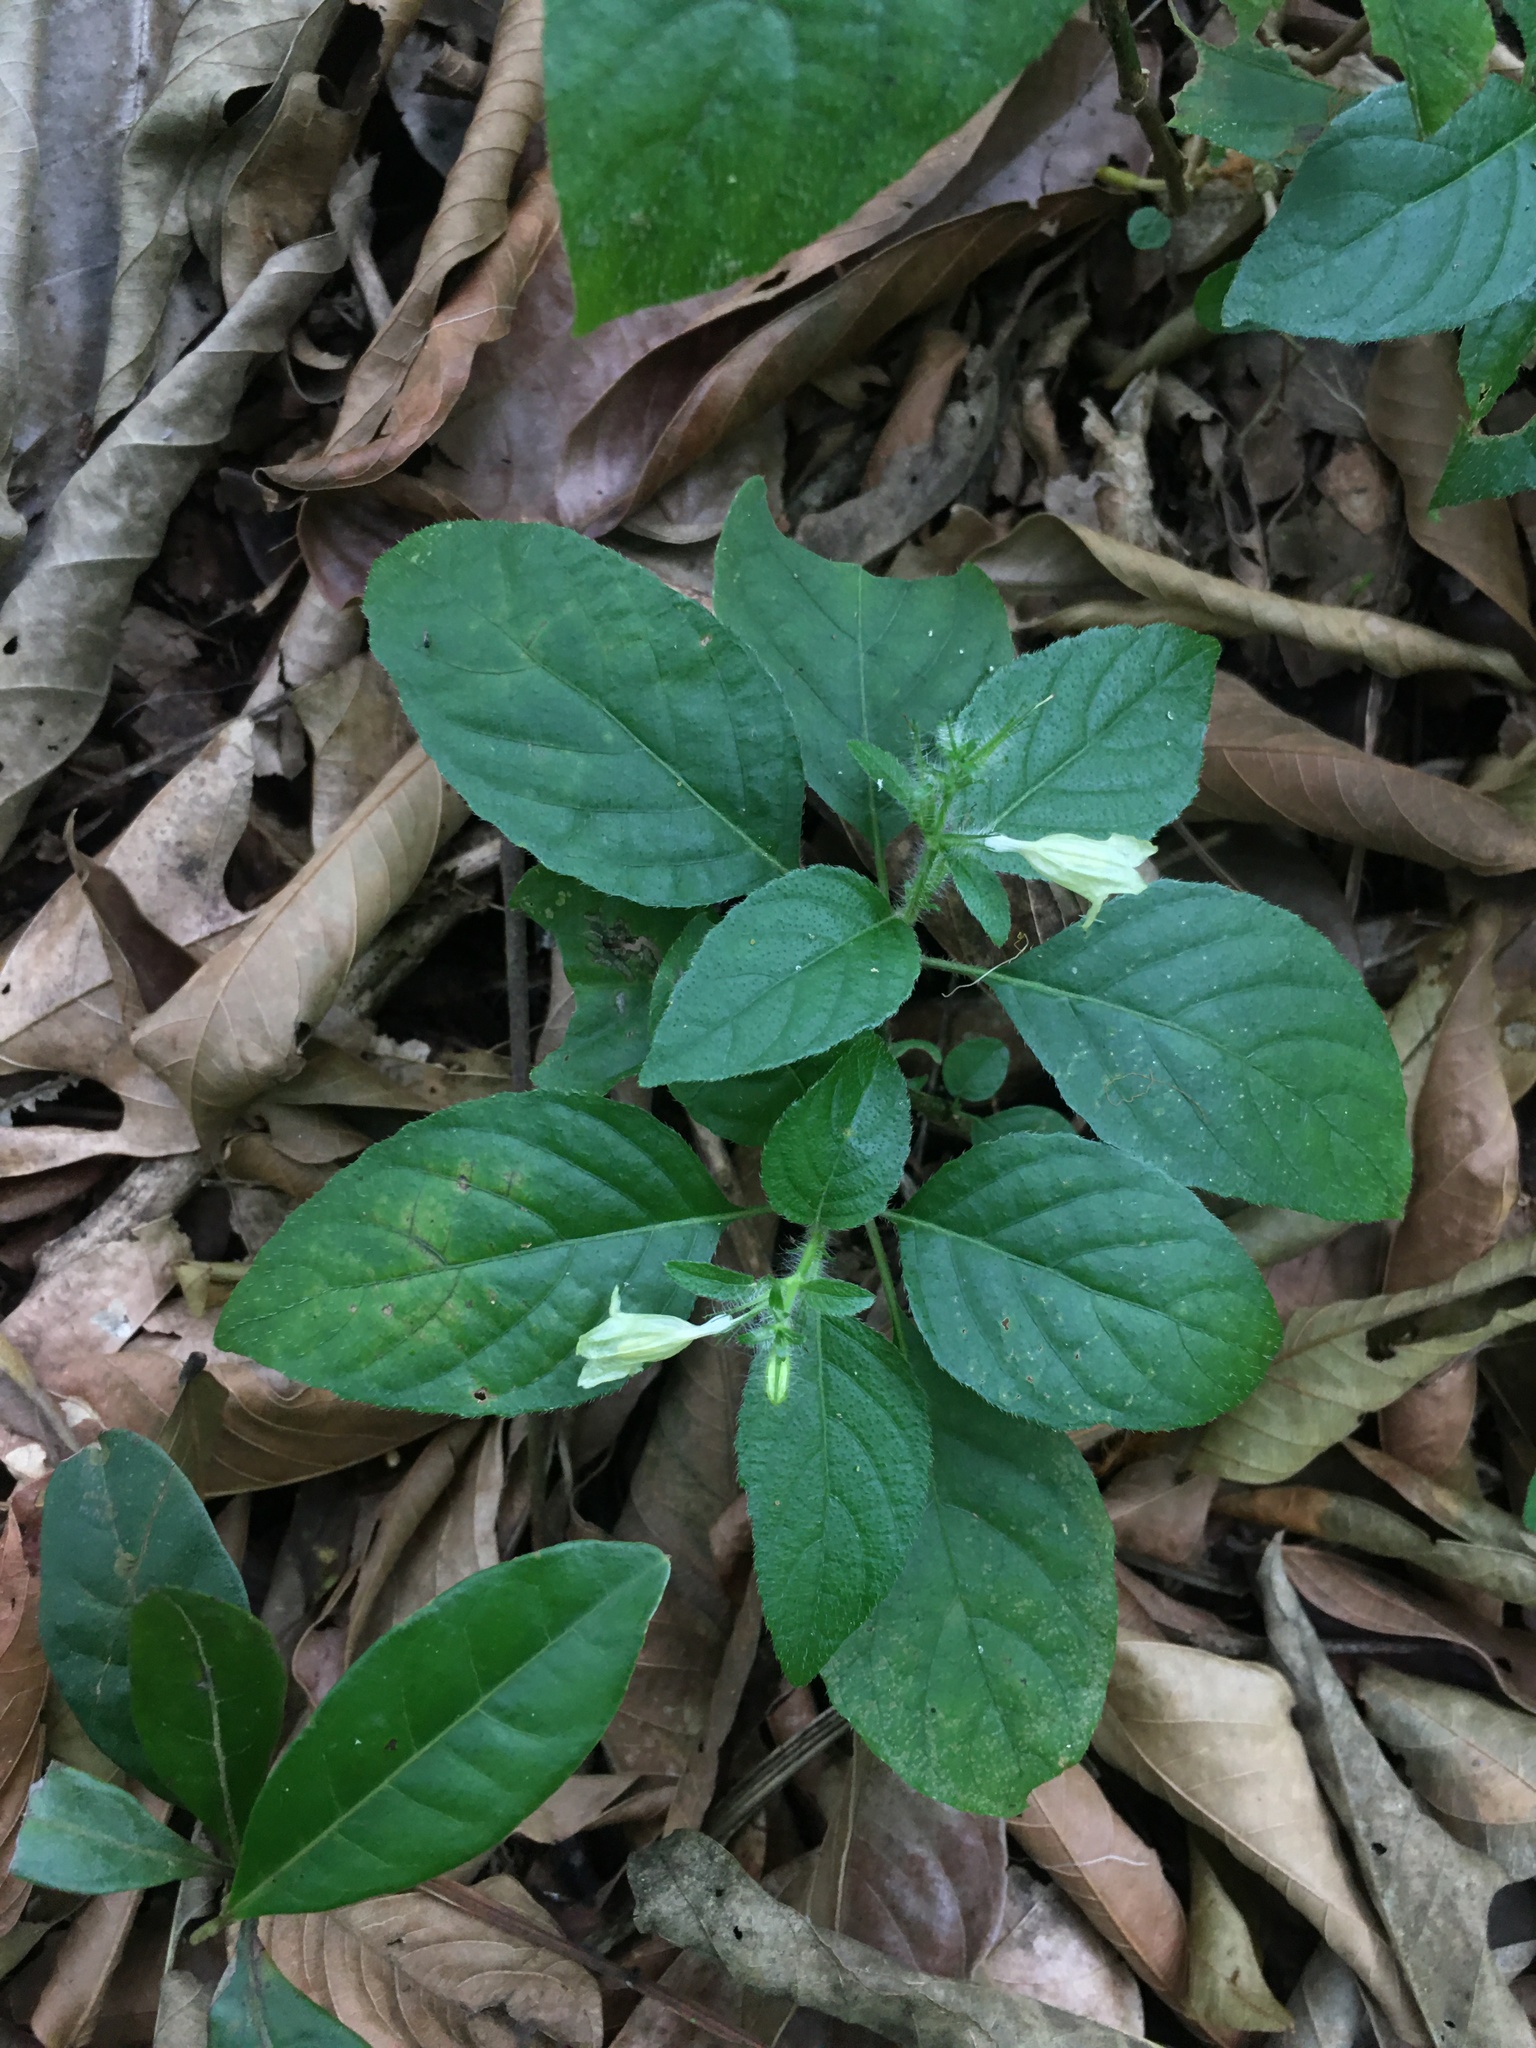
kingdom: Plantae
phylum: Tracheophyta
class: Magnoliopsida
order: Lamiales
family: Acanthaceae
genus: Ruellia
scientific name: Ruellia ochroleuca
